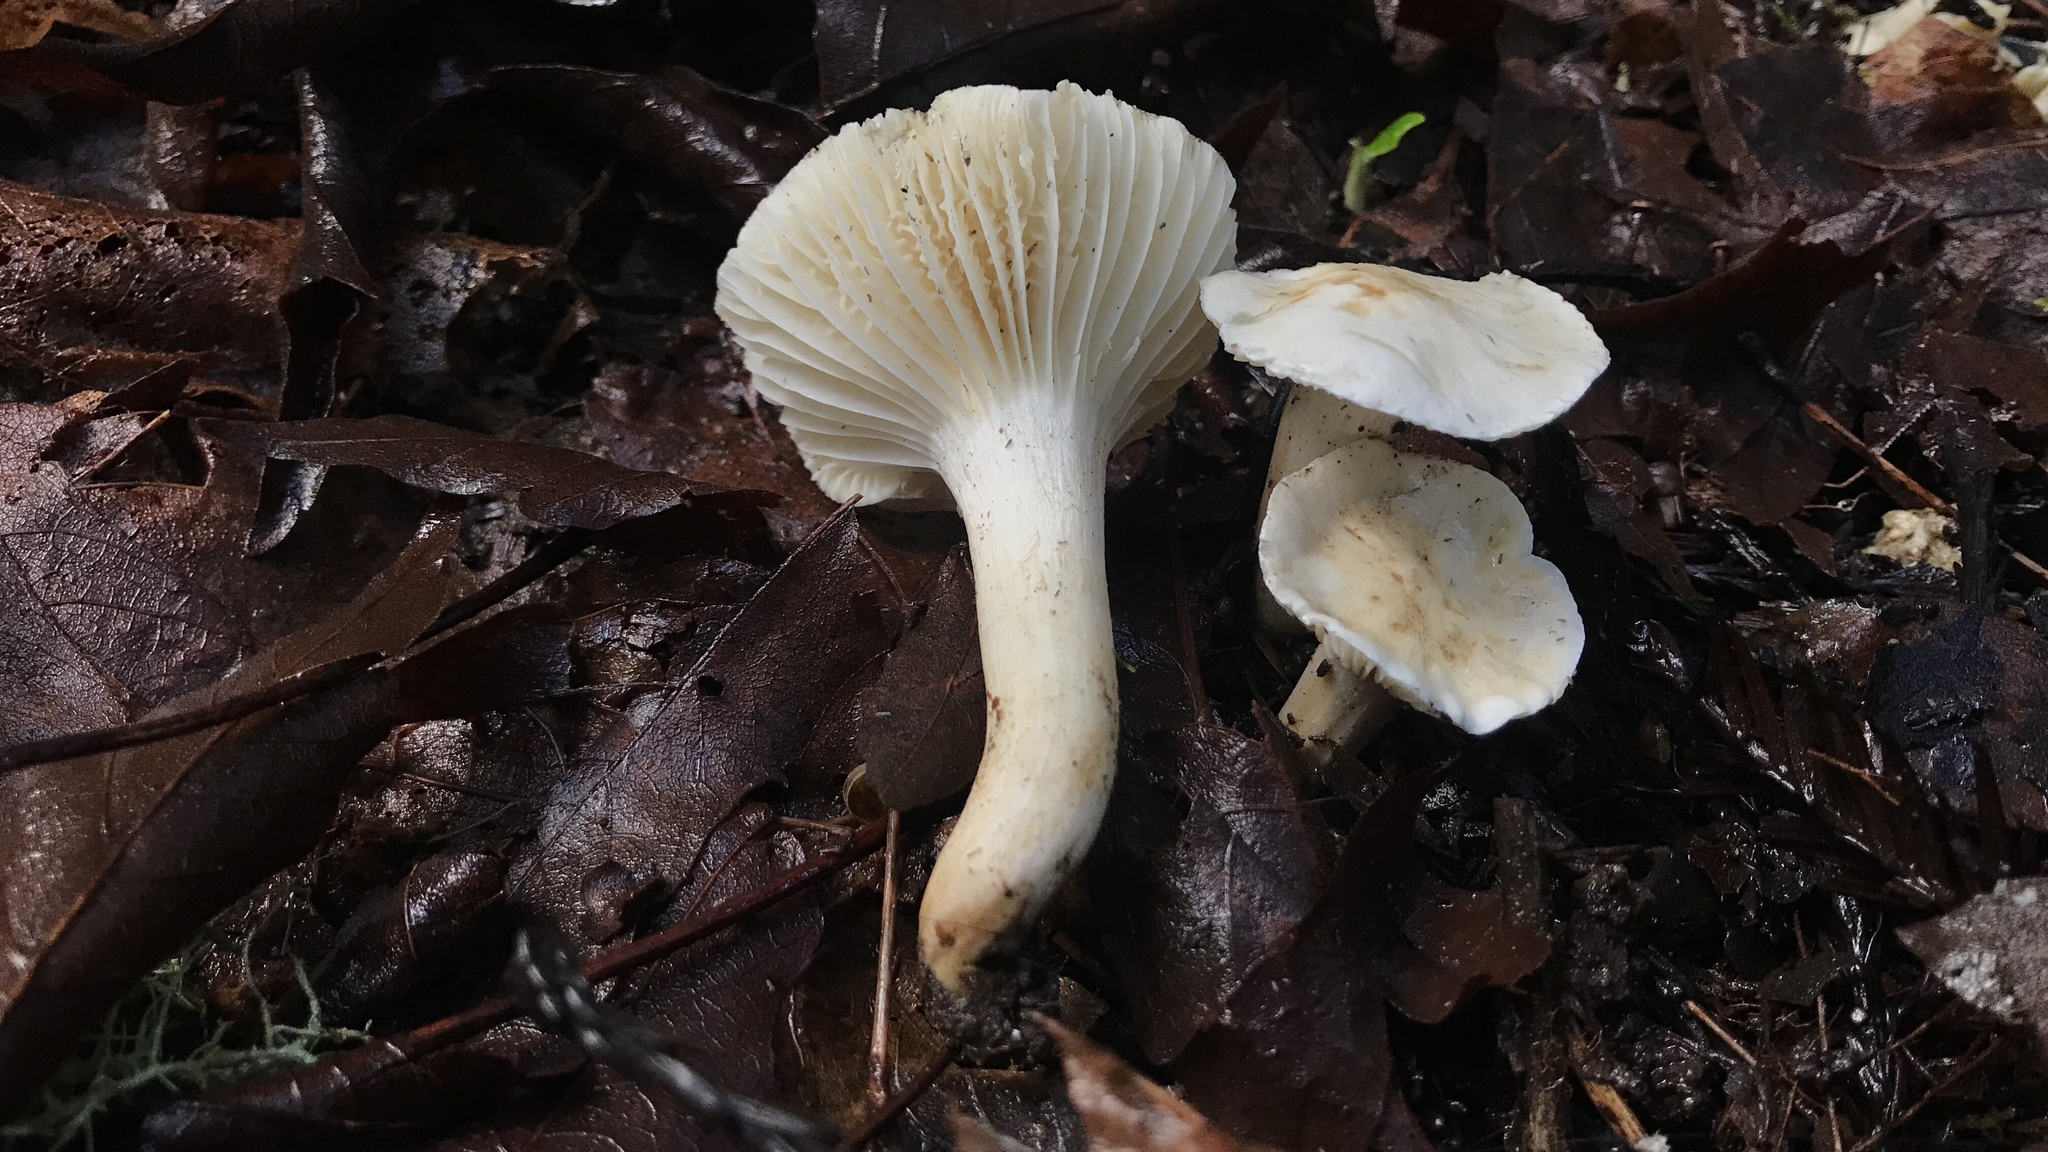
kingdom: Fungi
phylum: Basidiomycota
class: Agaricomycetes
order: Agaricales
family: Hygrophoraceae
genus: Cuphophyllus
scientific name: Cuphophyllus pratensis
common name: Meadow waxcap
